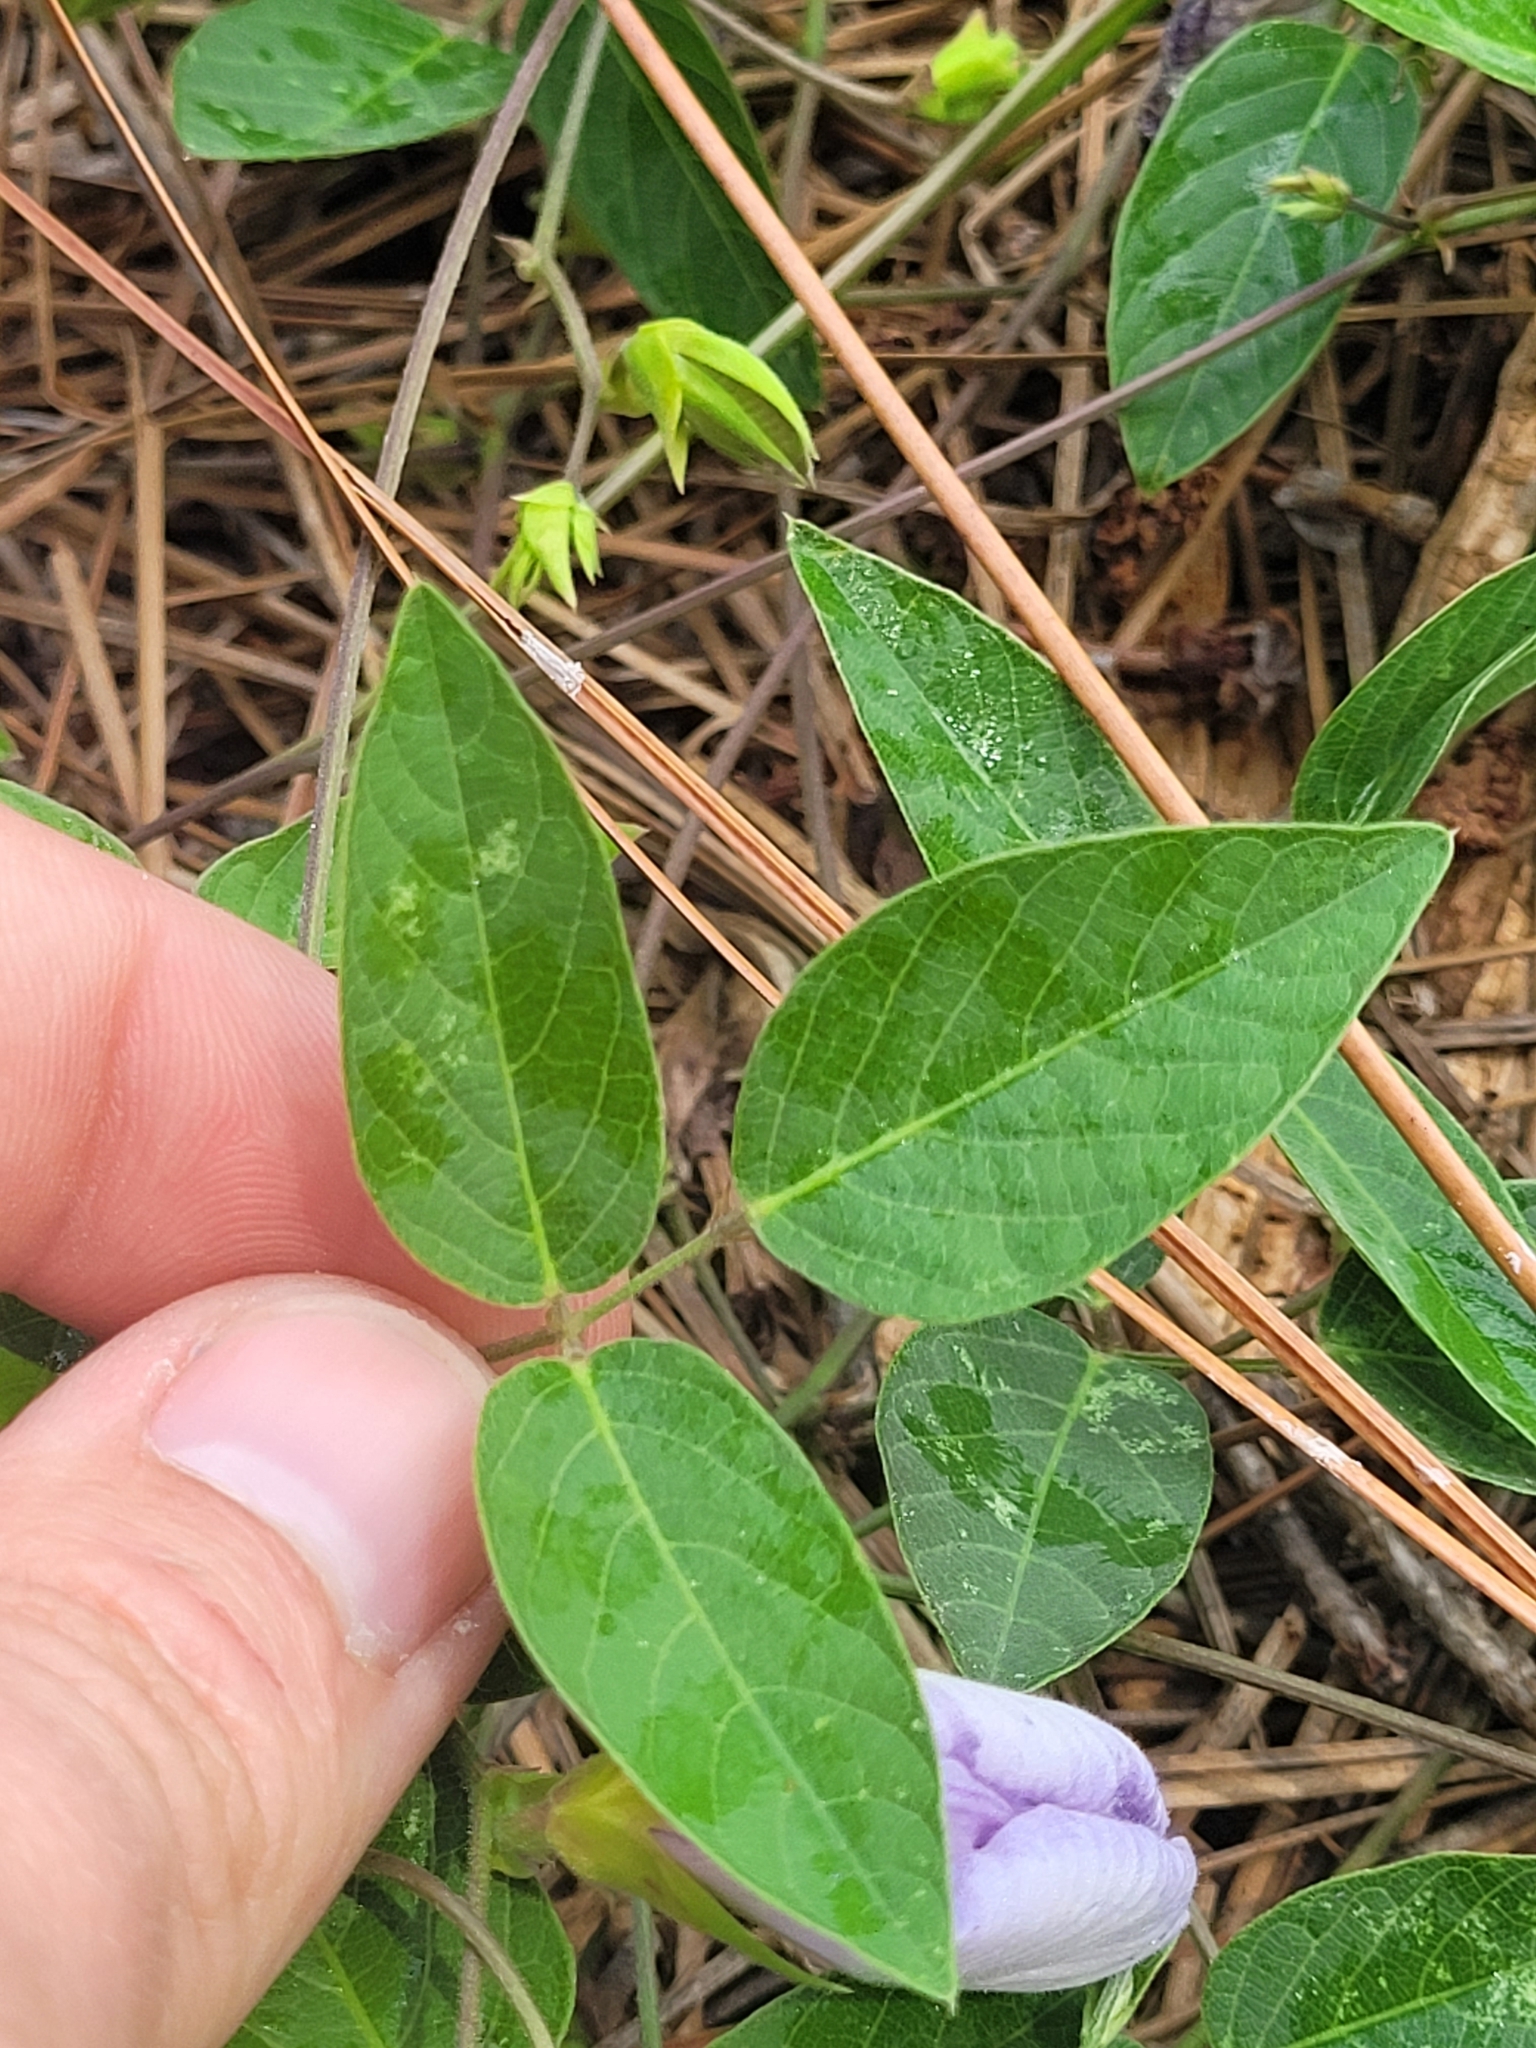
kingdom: Plantae
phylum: Tracheophyta
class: Magnoliopsida
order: Fabales
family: Fabaceae
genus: Centrosema
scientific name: Centrosema virginianum
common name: Butterfly-pea
